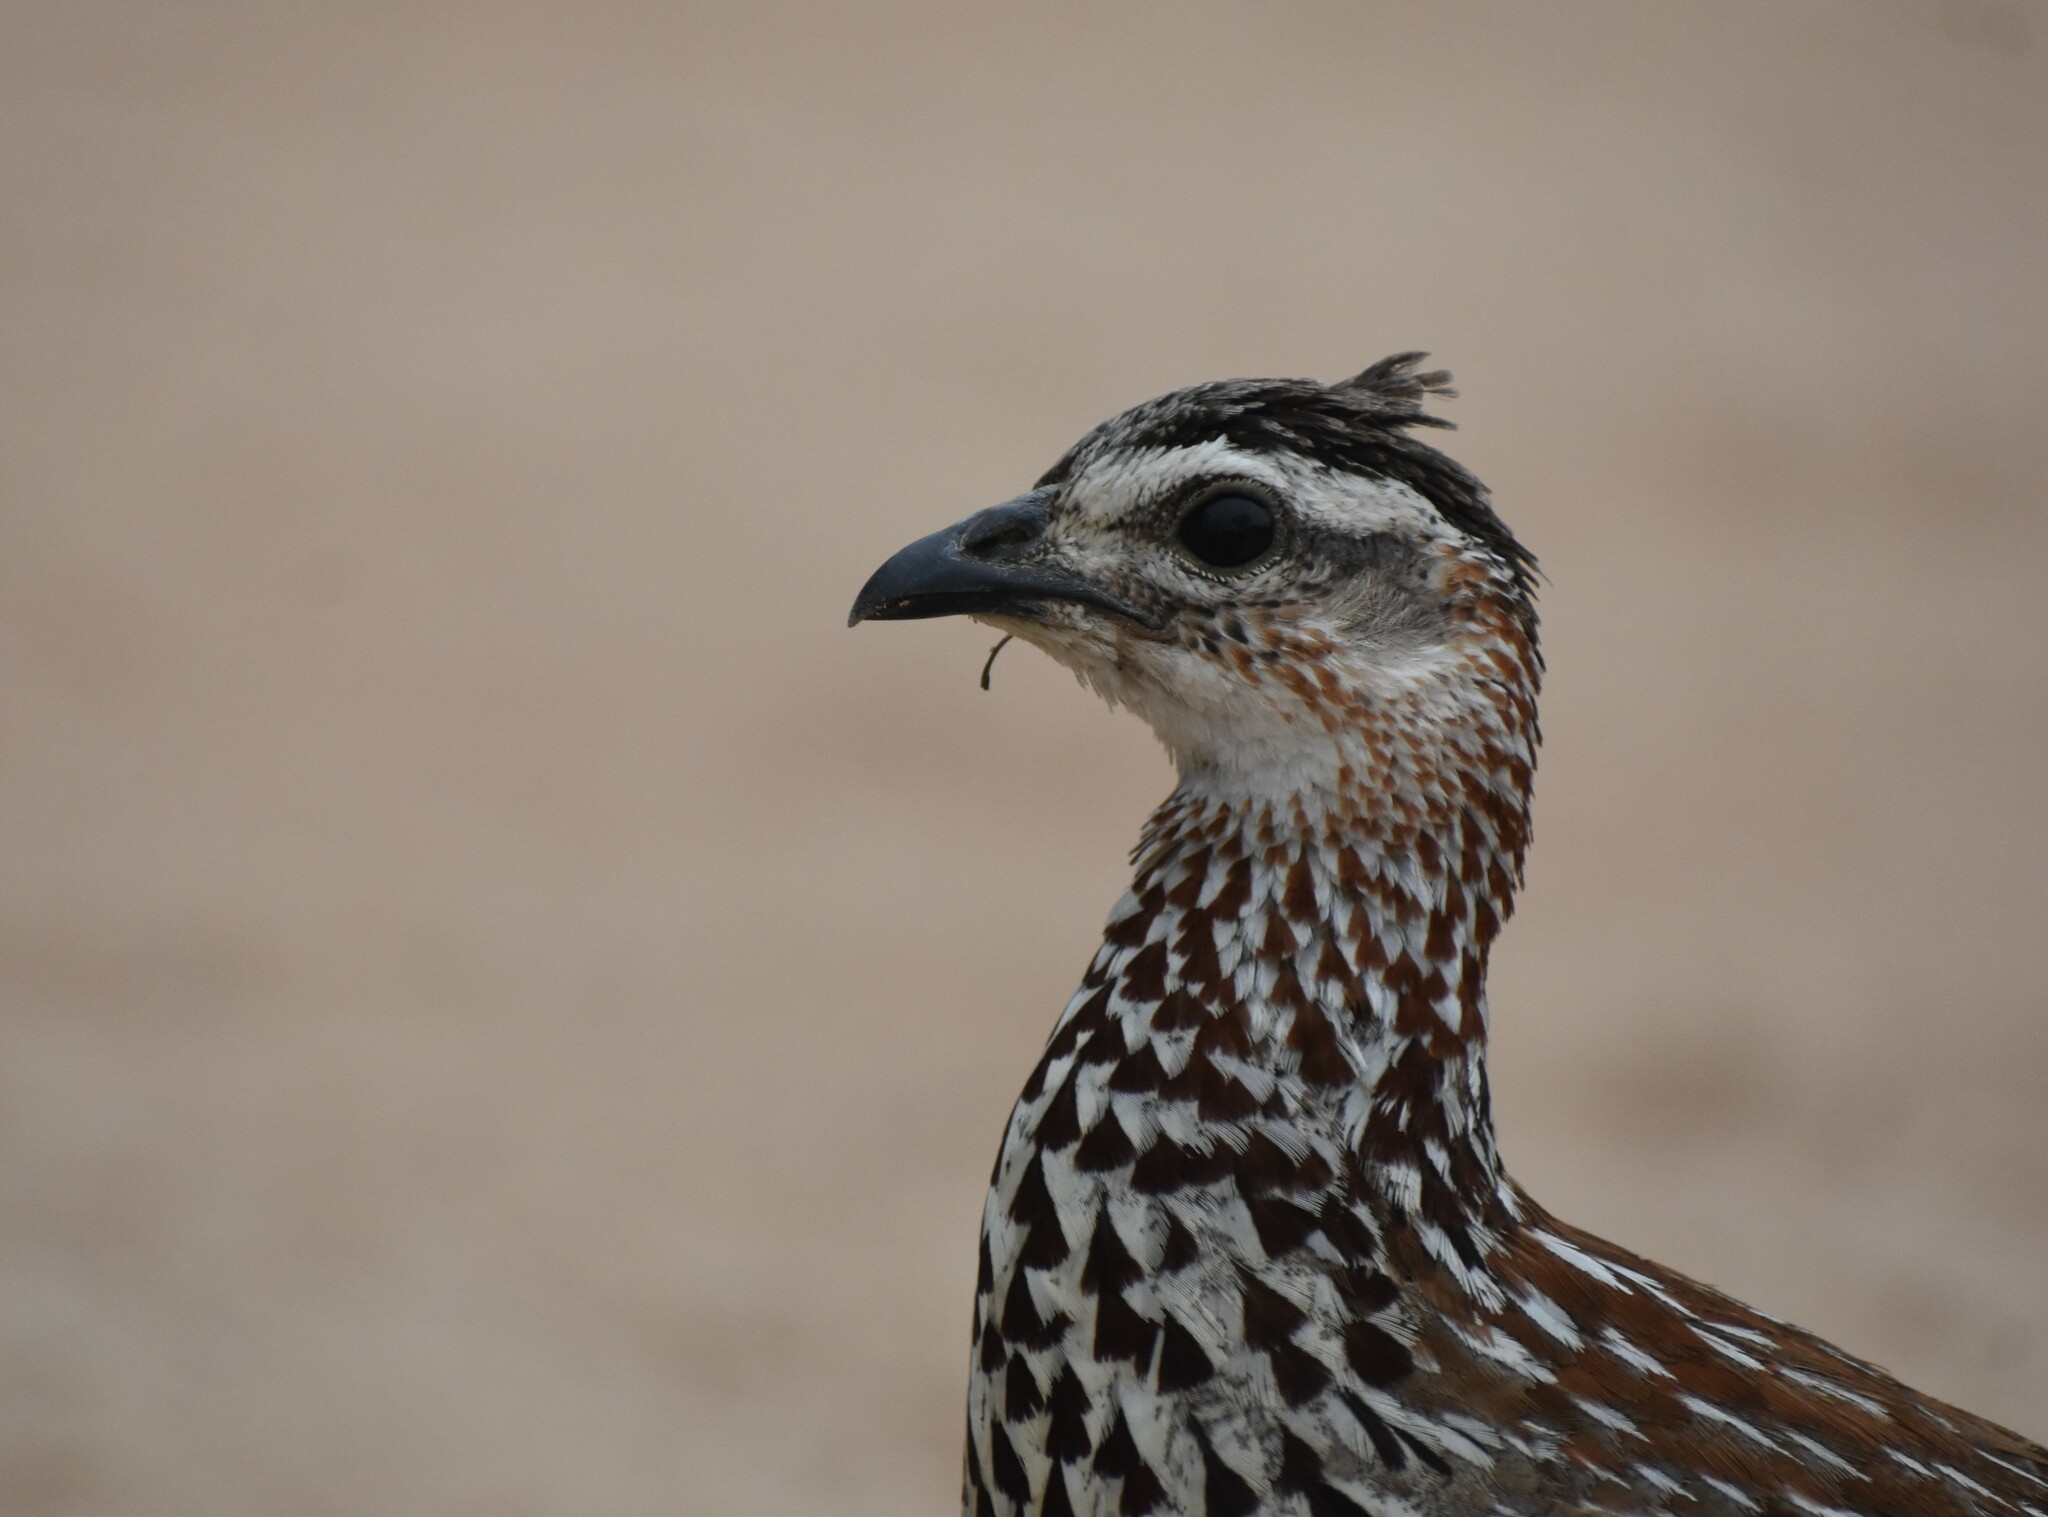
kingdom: Animalia
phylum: Chordata
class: Aves
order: Galliformes
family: Phasianidae
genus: Ortygornis
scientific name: Ortygornis sephaena
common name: Crested francolin
